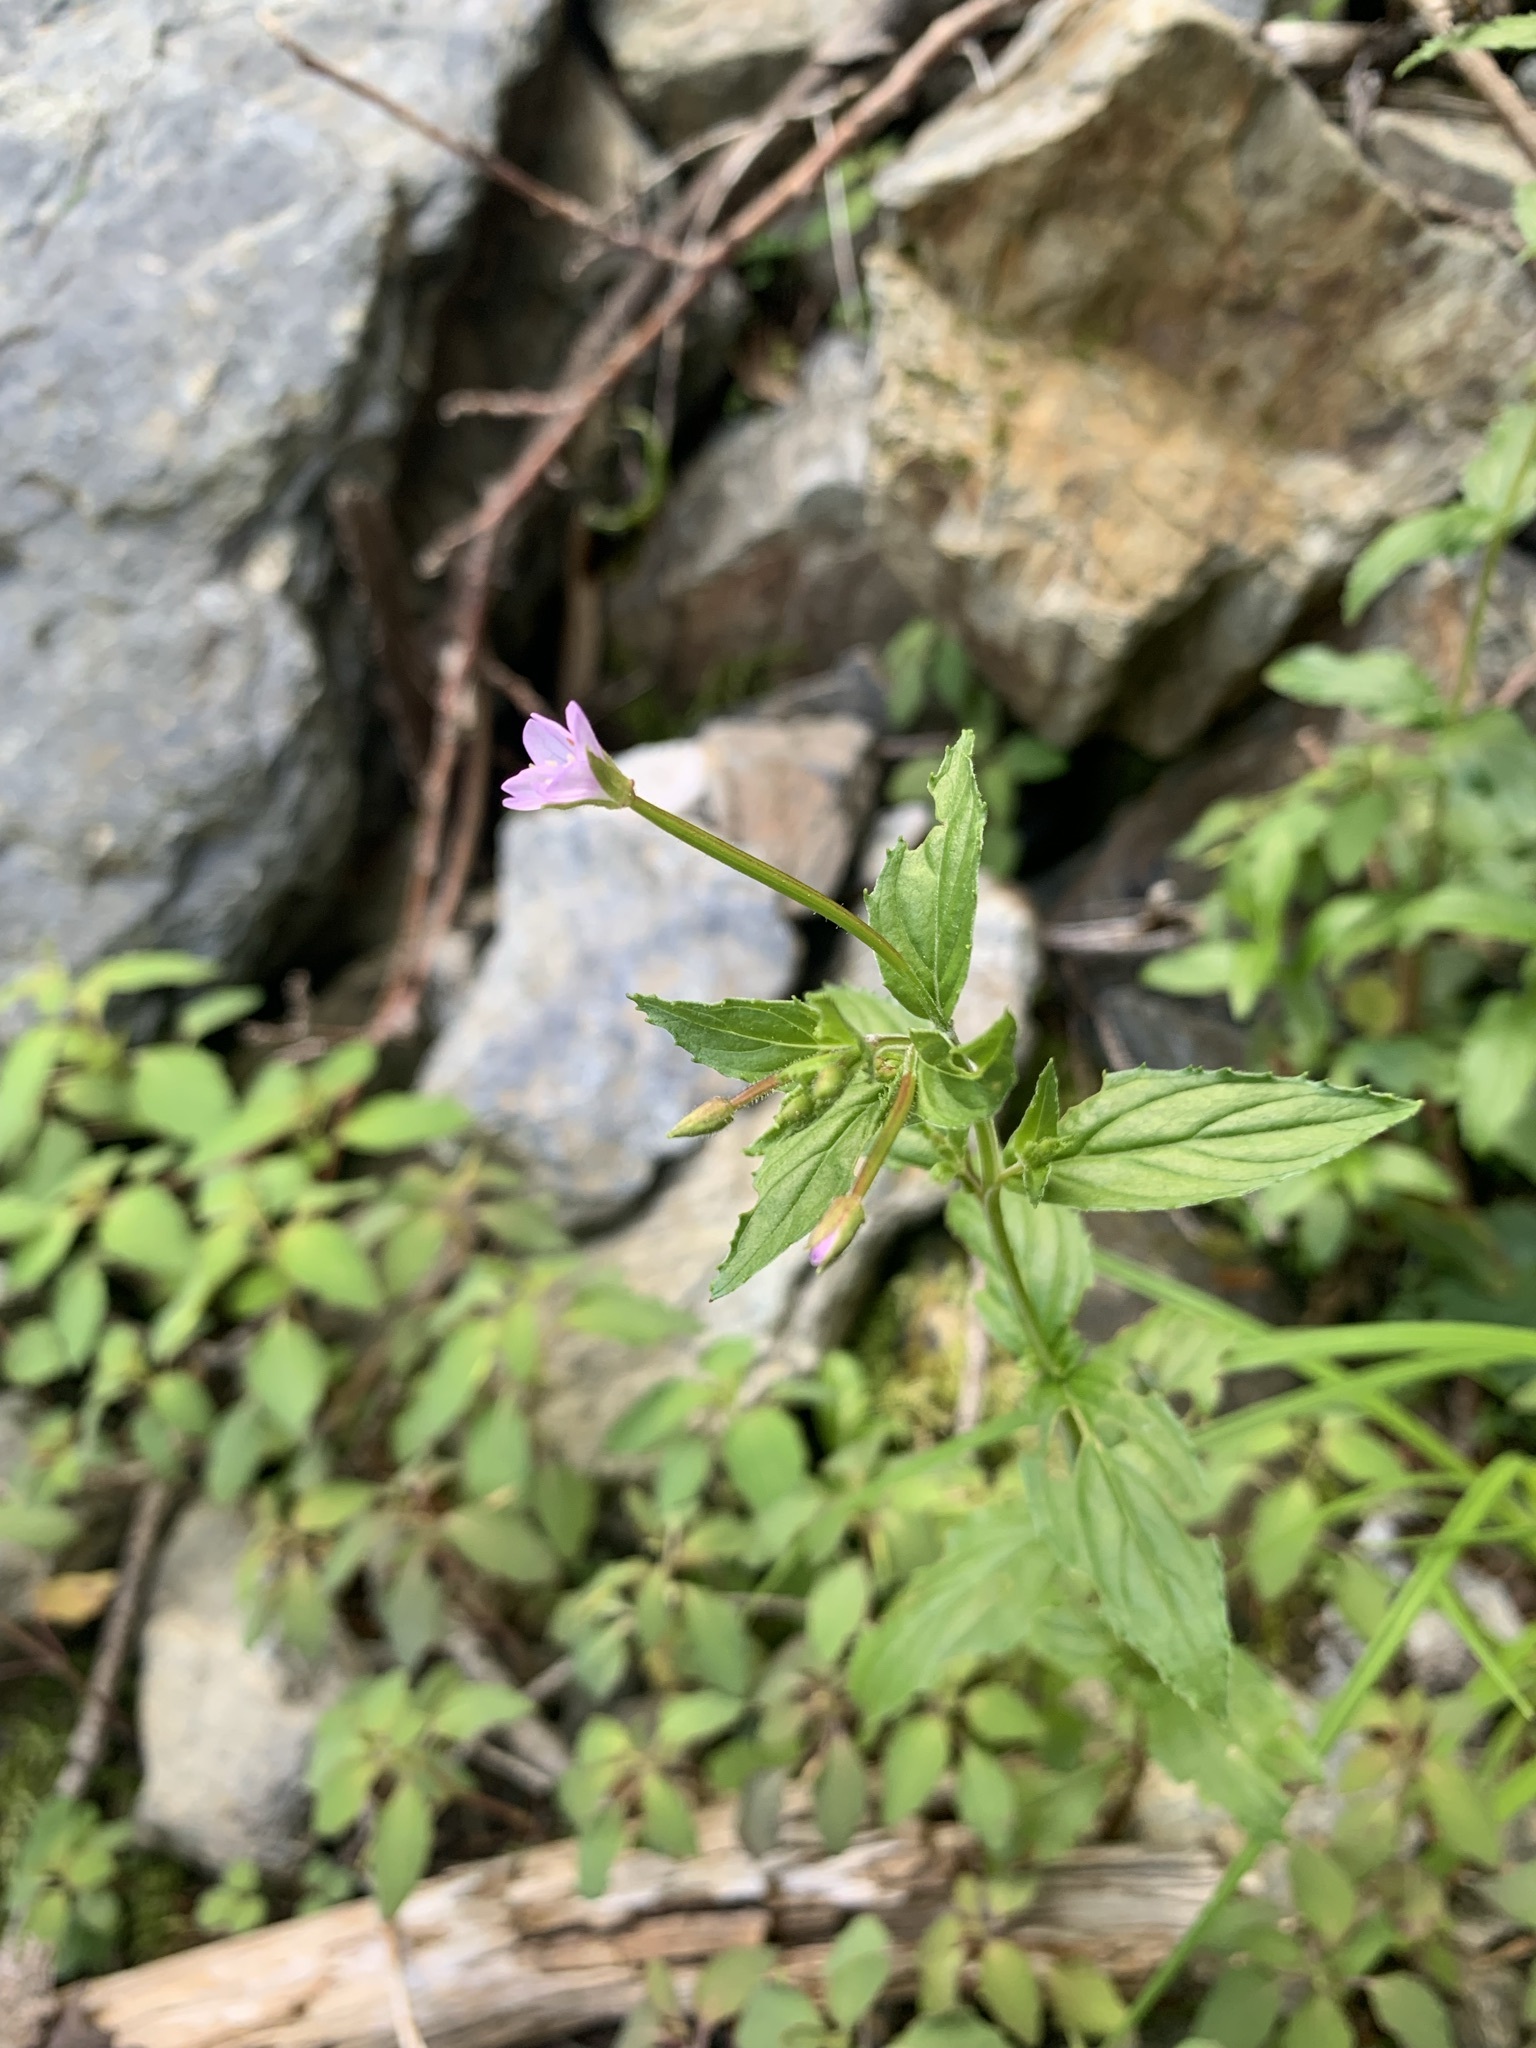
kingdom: Plantae
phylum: Tracheophyta
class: Magnoliopsida
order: Myrtales
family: Onagraceae
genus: Epilobium
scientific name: Epilobium amurense
